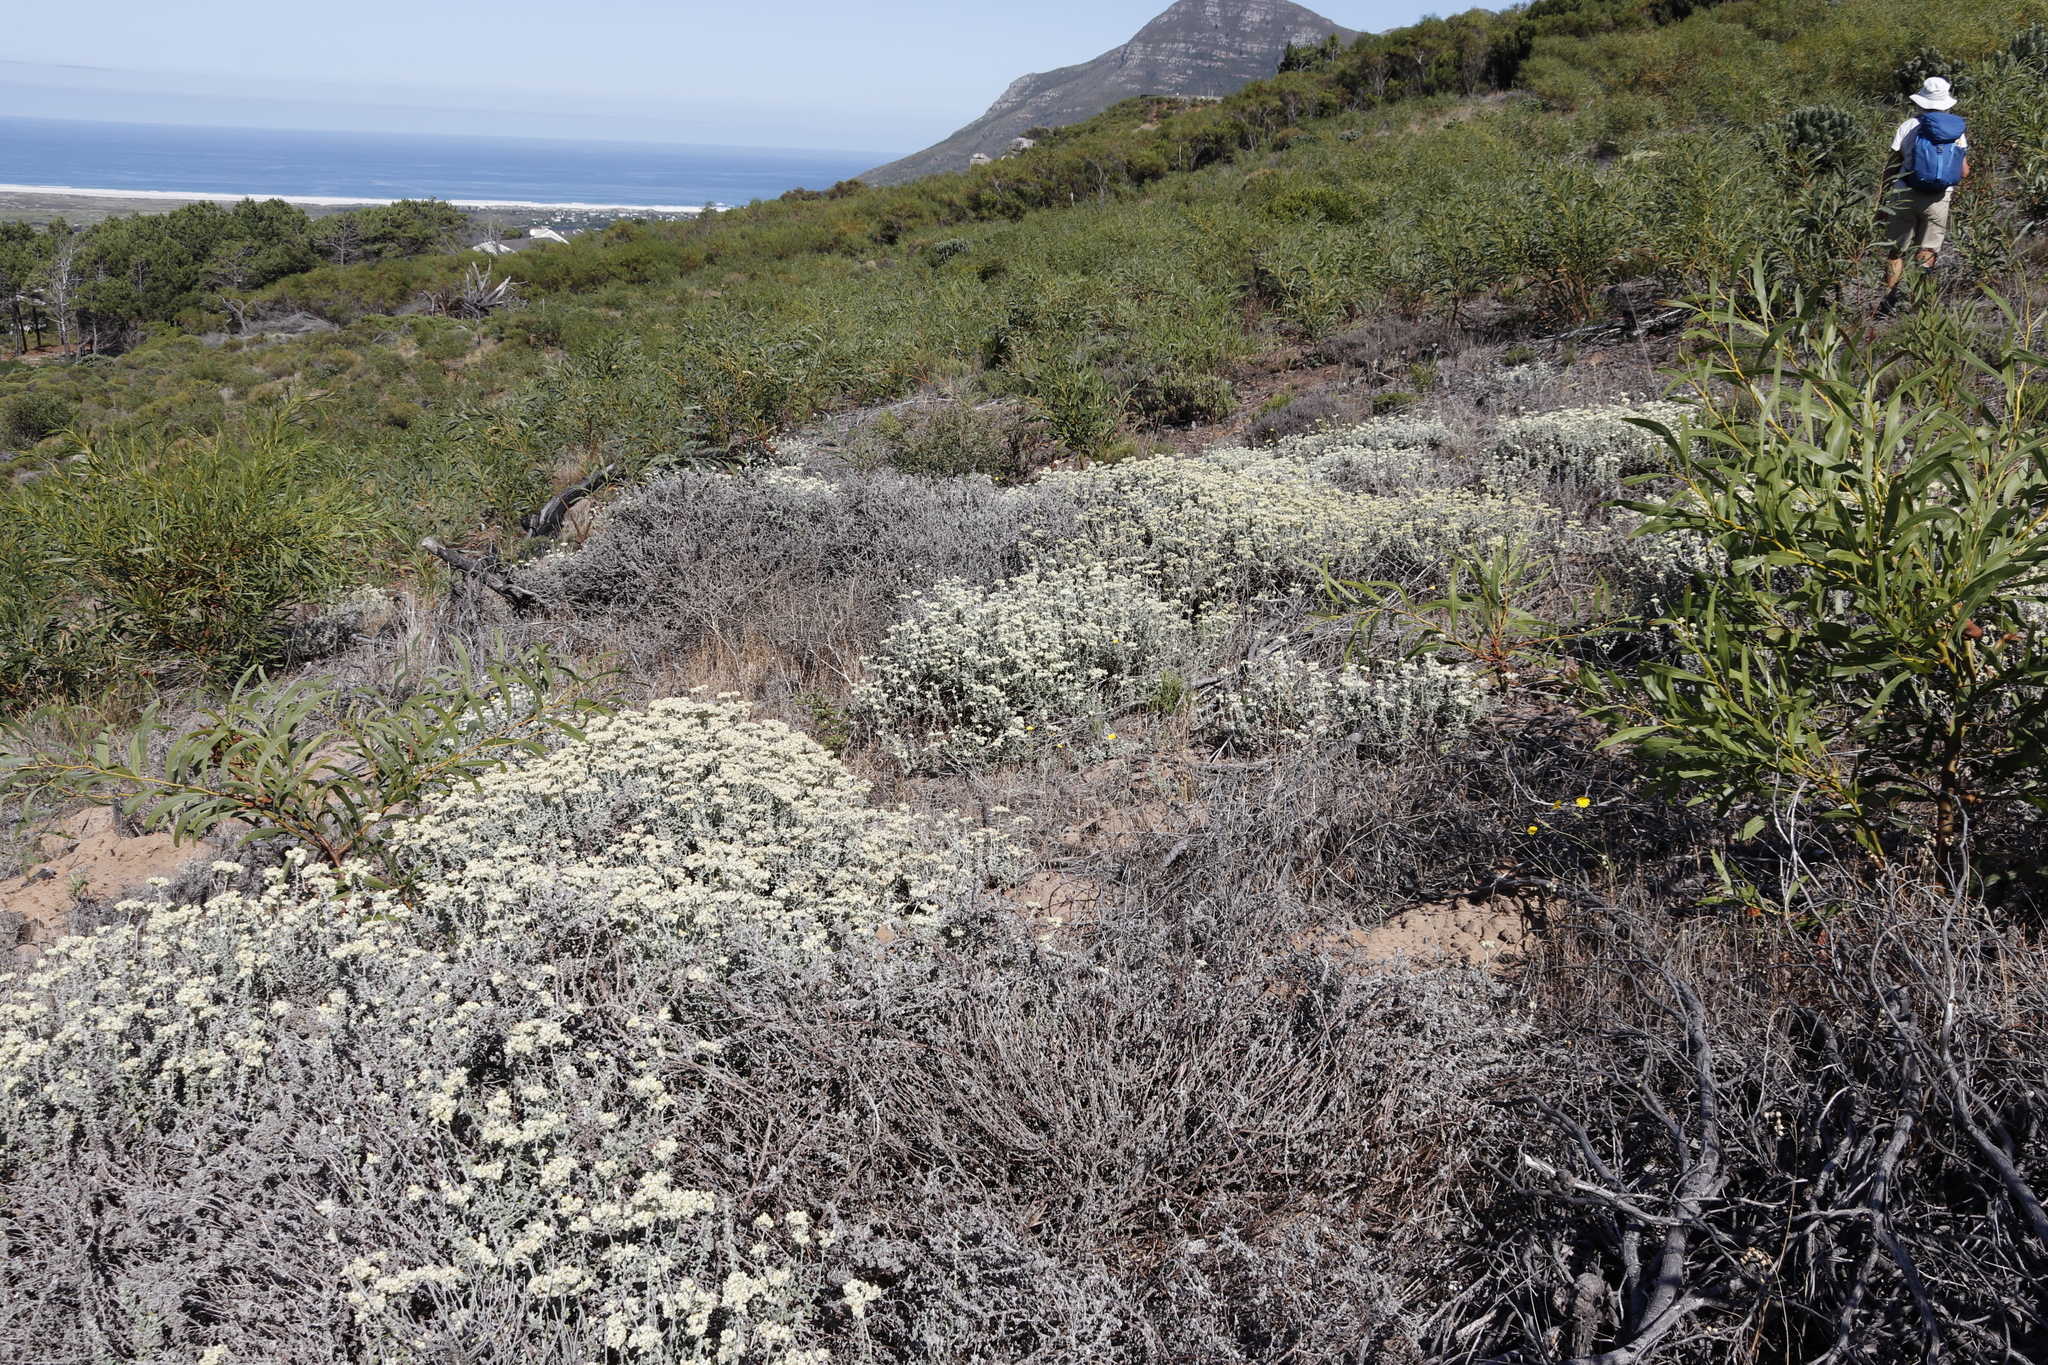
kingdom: Plantae
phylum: Tracheophyta
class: Magnoliopsida
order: Fabales
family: Fabaceae
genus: Acacia
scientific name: Acacia saligna
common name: Orange wattle
